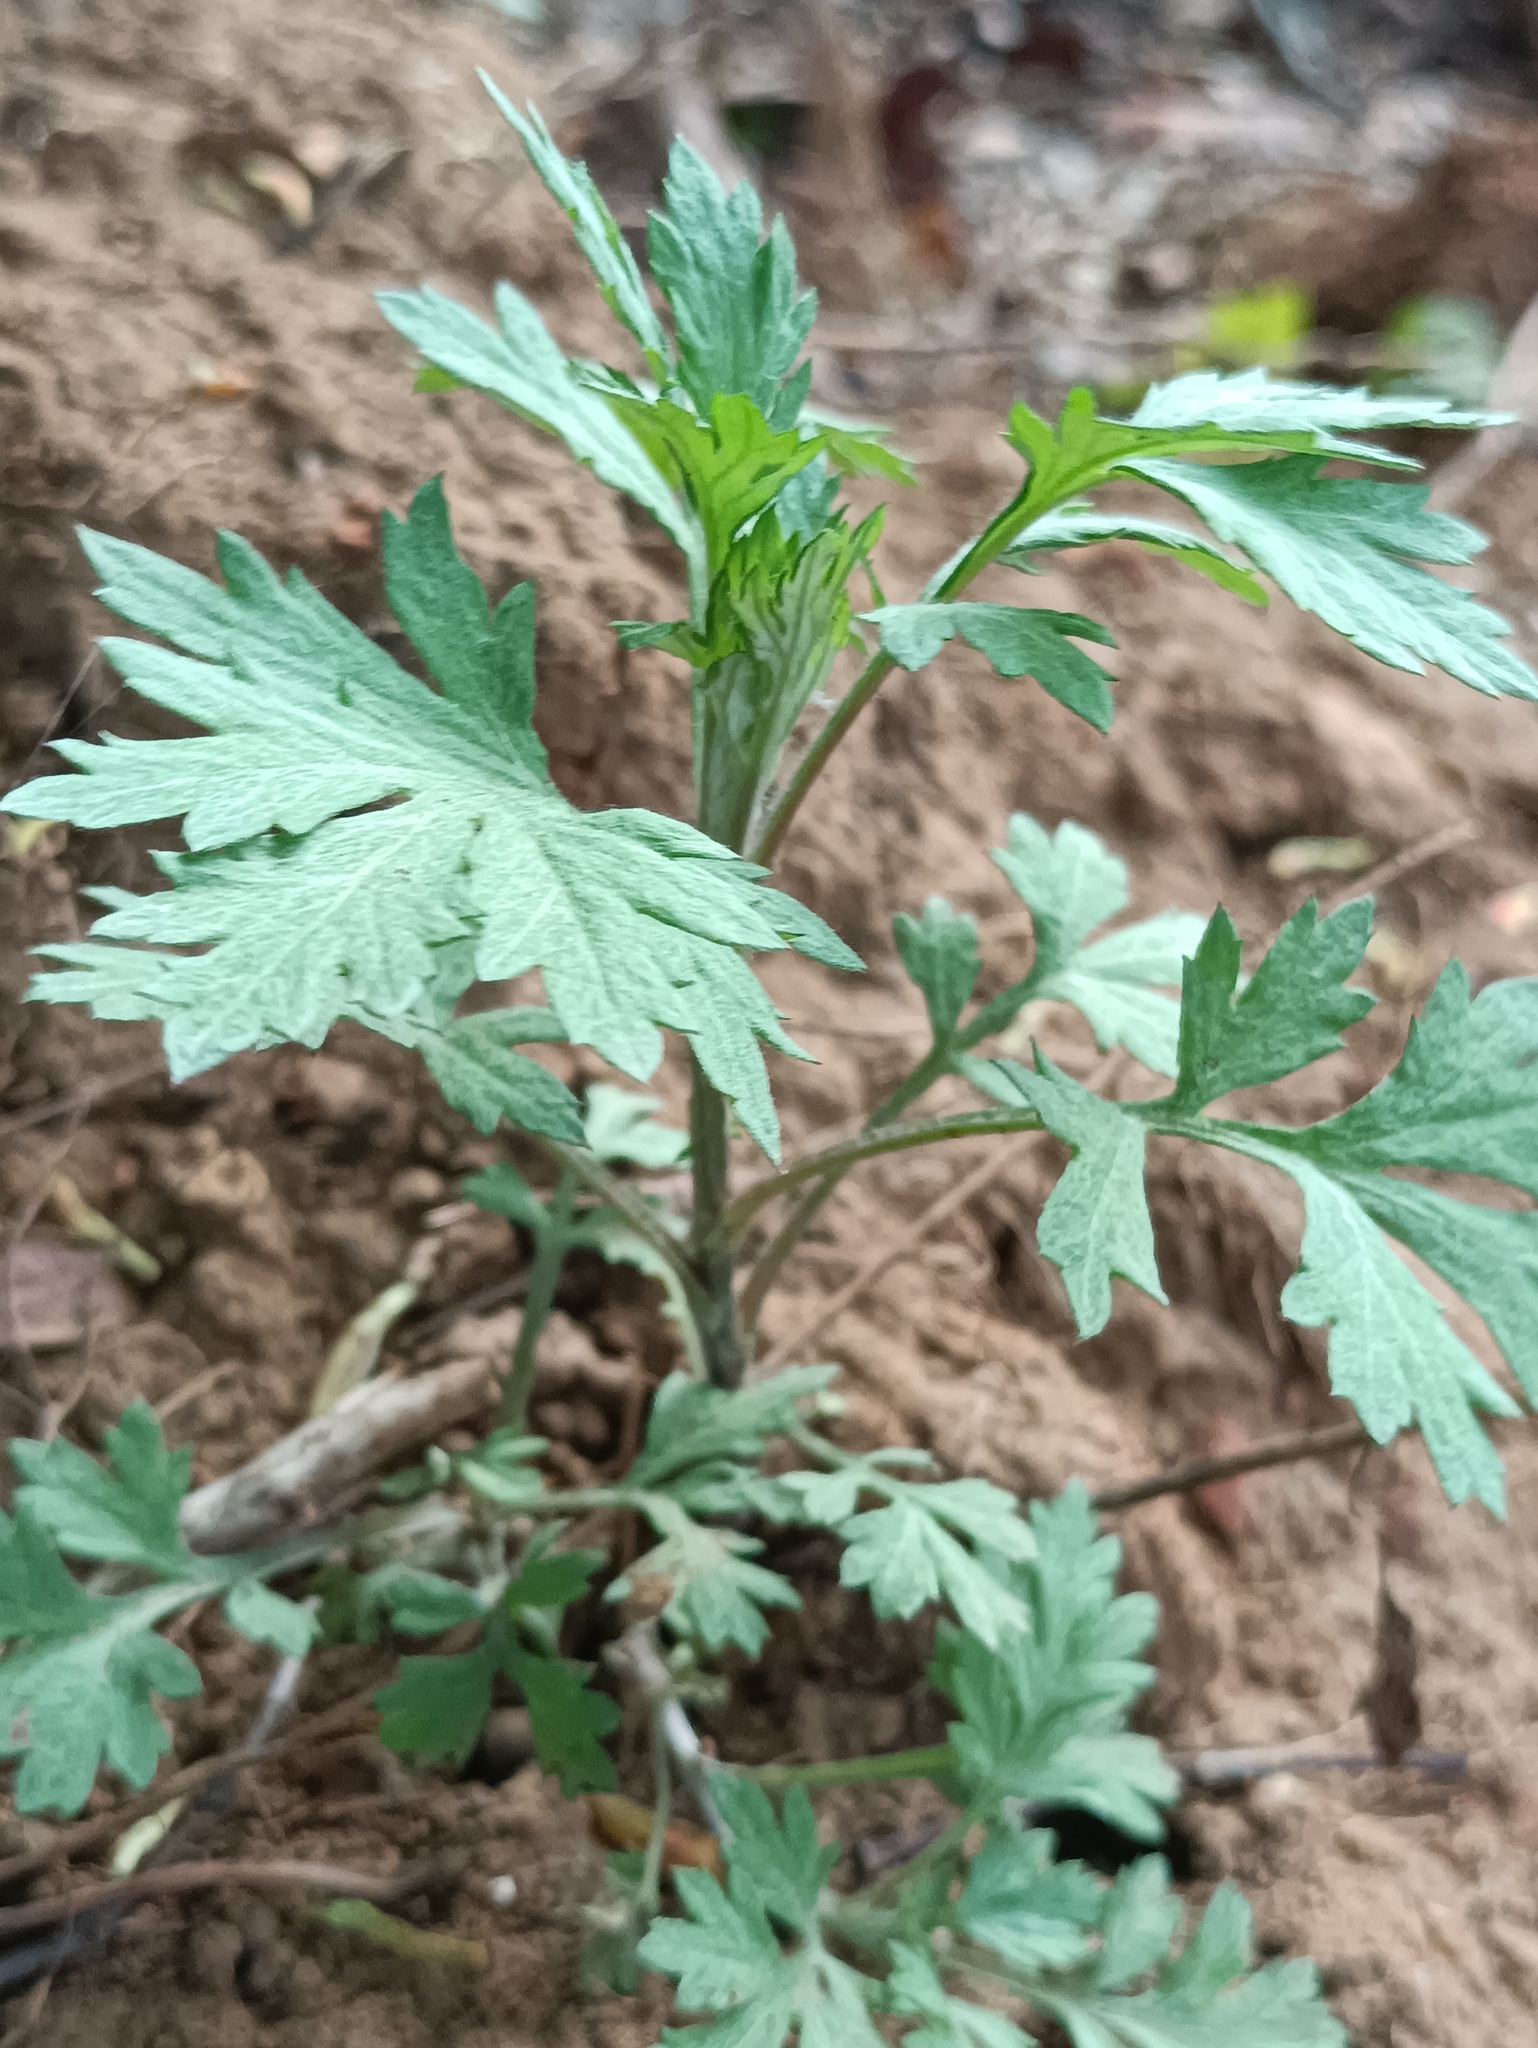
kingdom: Plantae
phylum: Tracheophyta
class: Magnoliopsida
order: Asterales
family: Asteraceae
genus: Artemisia
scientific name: Artemisia vulgaris
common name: Mugwort
